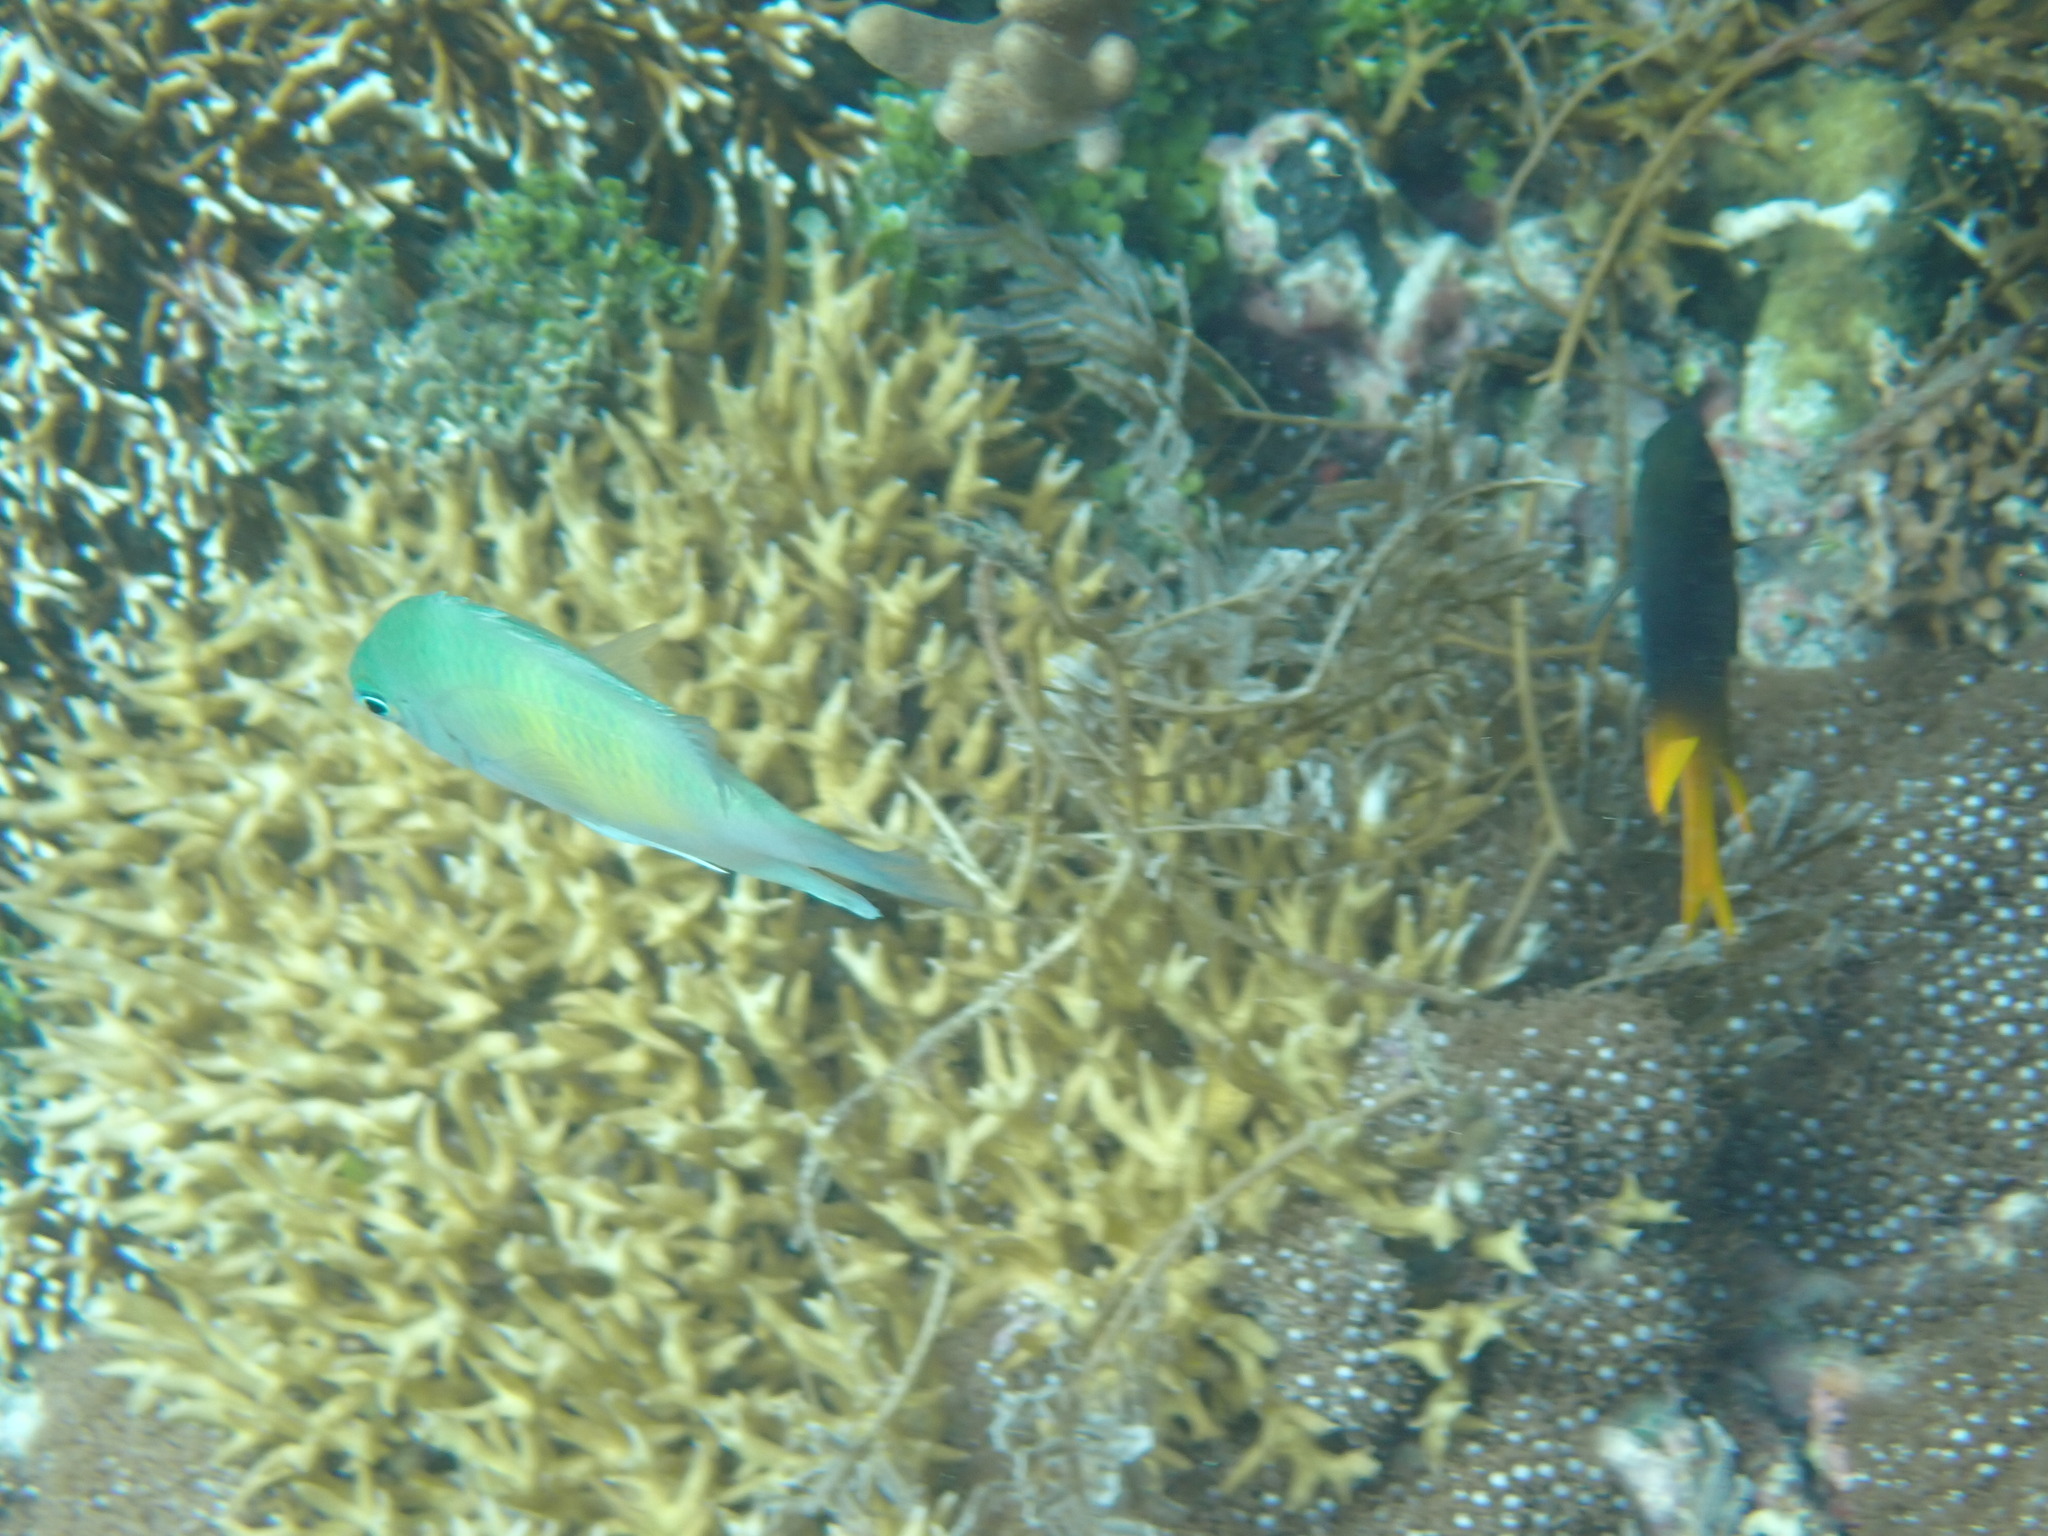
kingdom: Animalia
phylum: Chordata
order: Perciformes
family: Pomacentridae
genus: Amblyglyphidodon
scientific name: Amblyglyphidodon curacao
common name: Staghorn damsel
